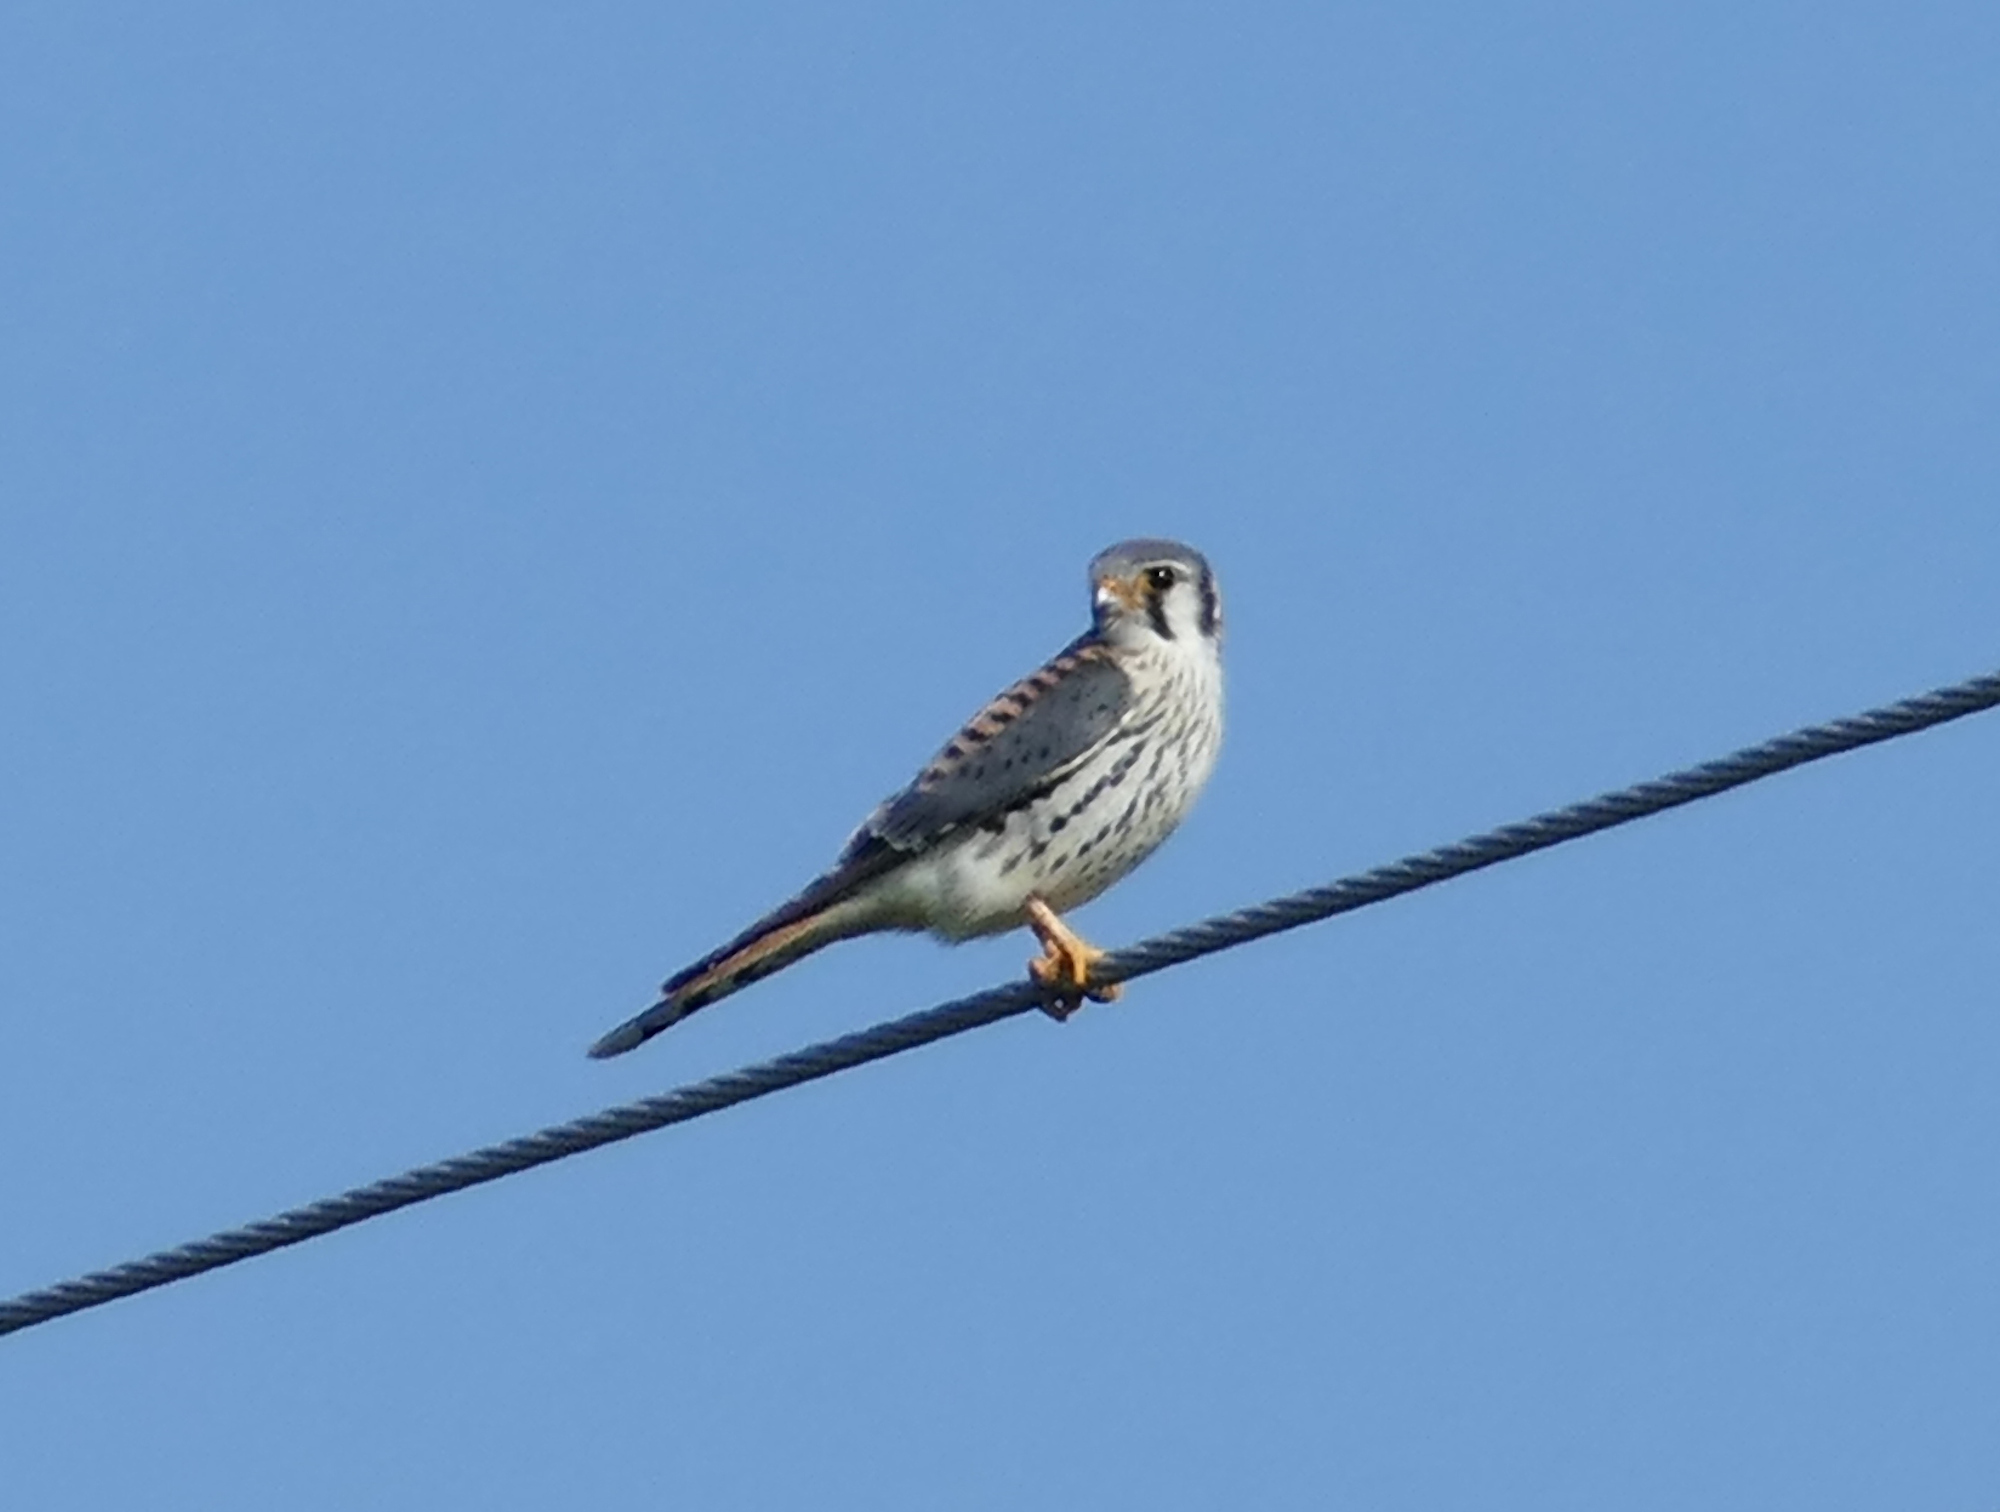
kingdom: Animalia
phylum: Chordata
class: Aves
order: Falconiformes
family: Falconidae
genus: Falco
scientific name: Falco sparverius
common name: American kestrel
